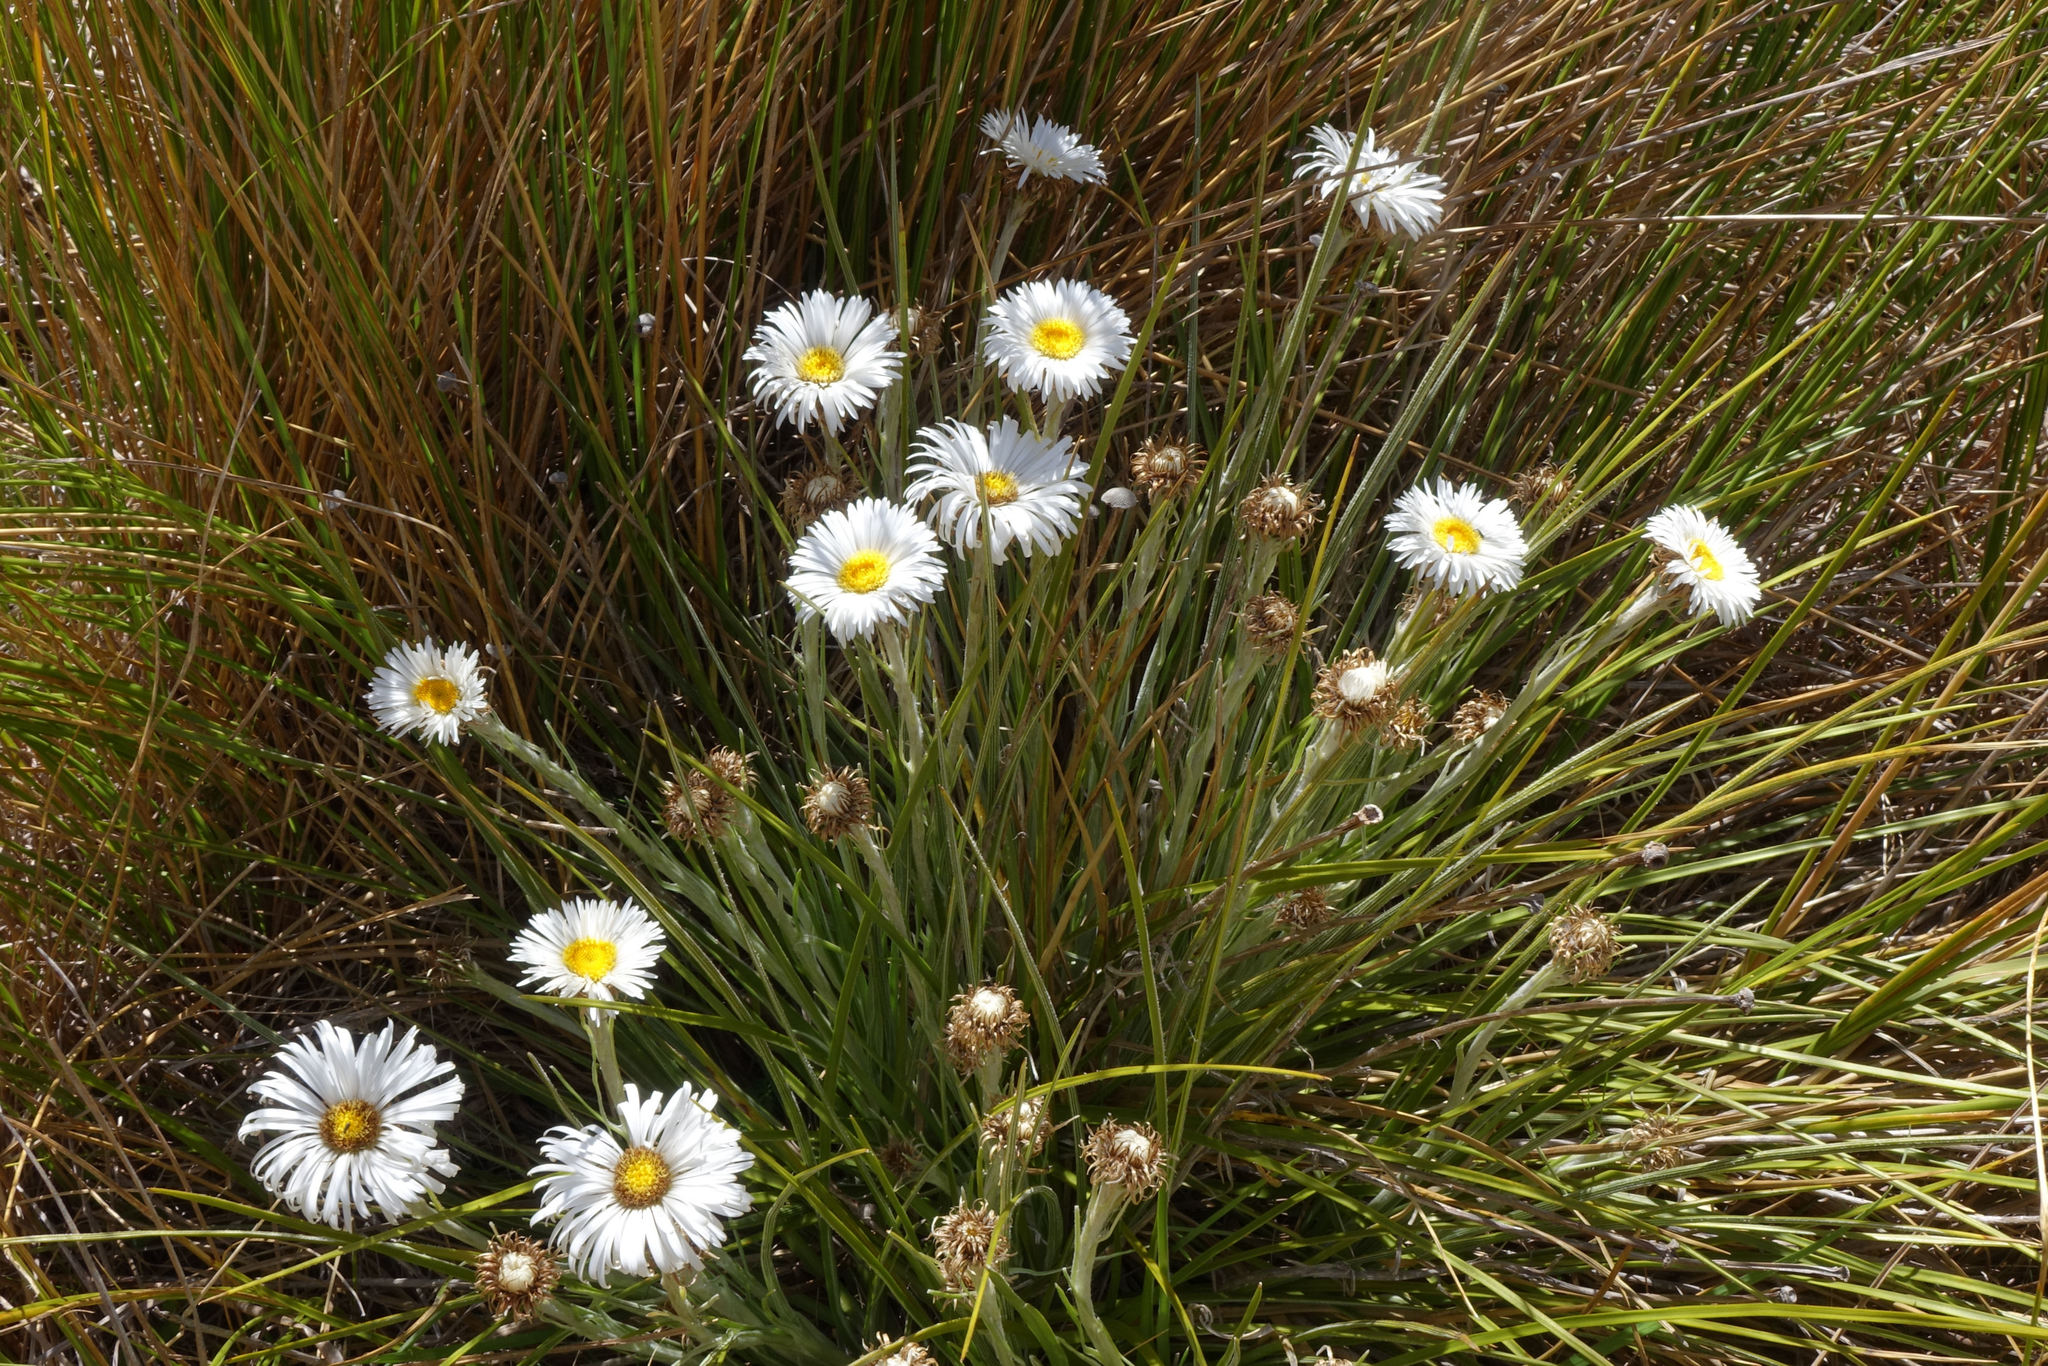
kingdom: Plantae
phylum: Tracheophyta
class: Magnoliopsida
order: Asterales
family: Asteraceae
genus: Celmisia
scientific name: Celmisia lyallii
